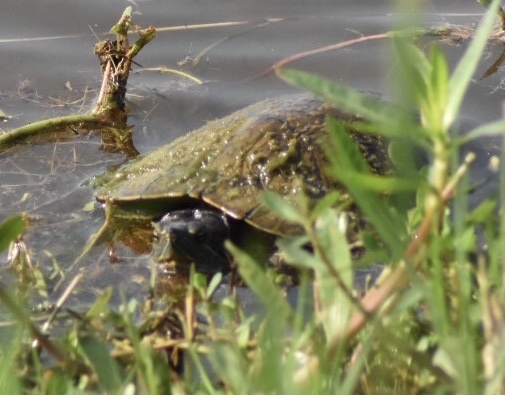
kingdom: Animalia
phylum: Chordata
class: Testudines
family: Emydidae
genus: Trachemys
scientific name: Trachemys scripta
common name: Slider
